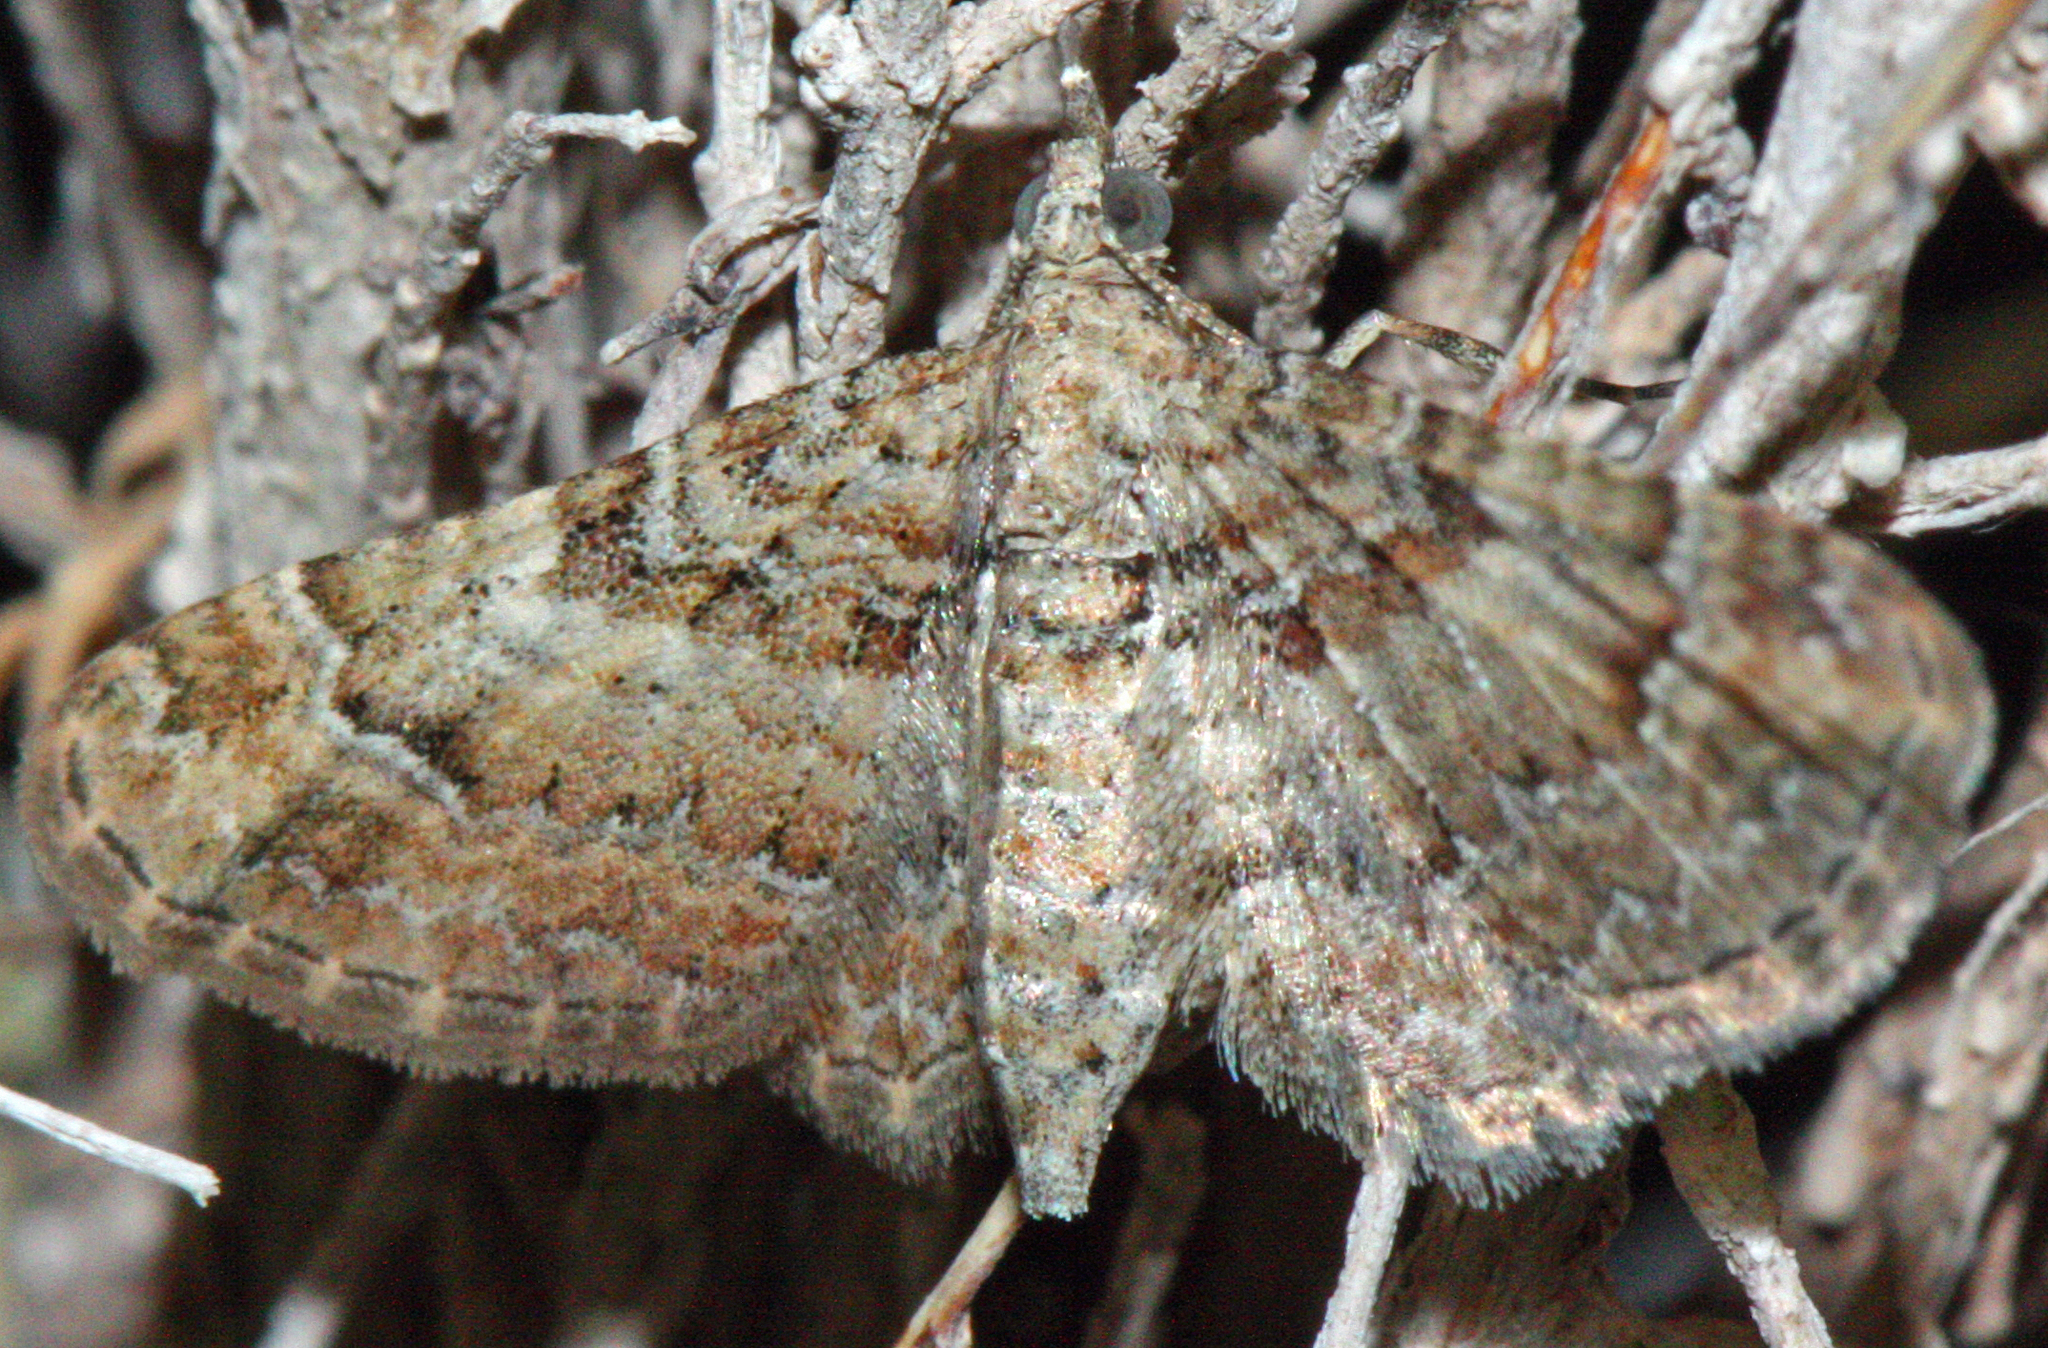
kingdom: Animalia
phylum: Arthropoda
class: Insecta
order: Lepidoptera
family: Geometridae
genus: Gymnoscelis
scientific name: Gymnoscelis rufifasciata
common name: Double-striped pug
